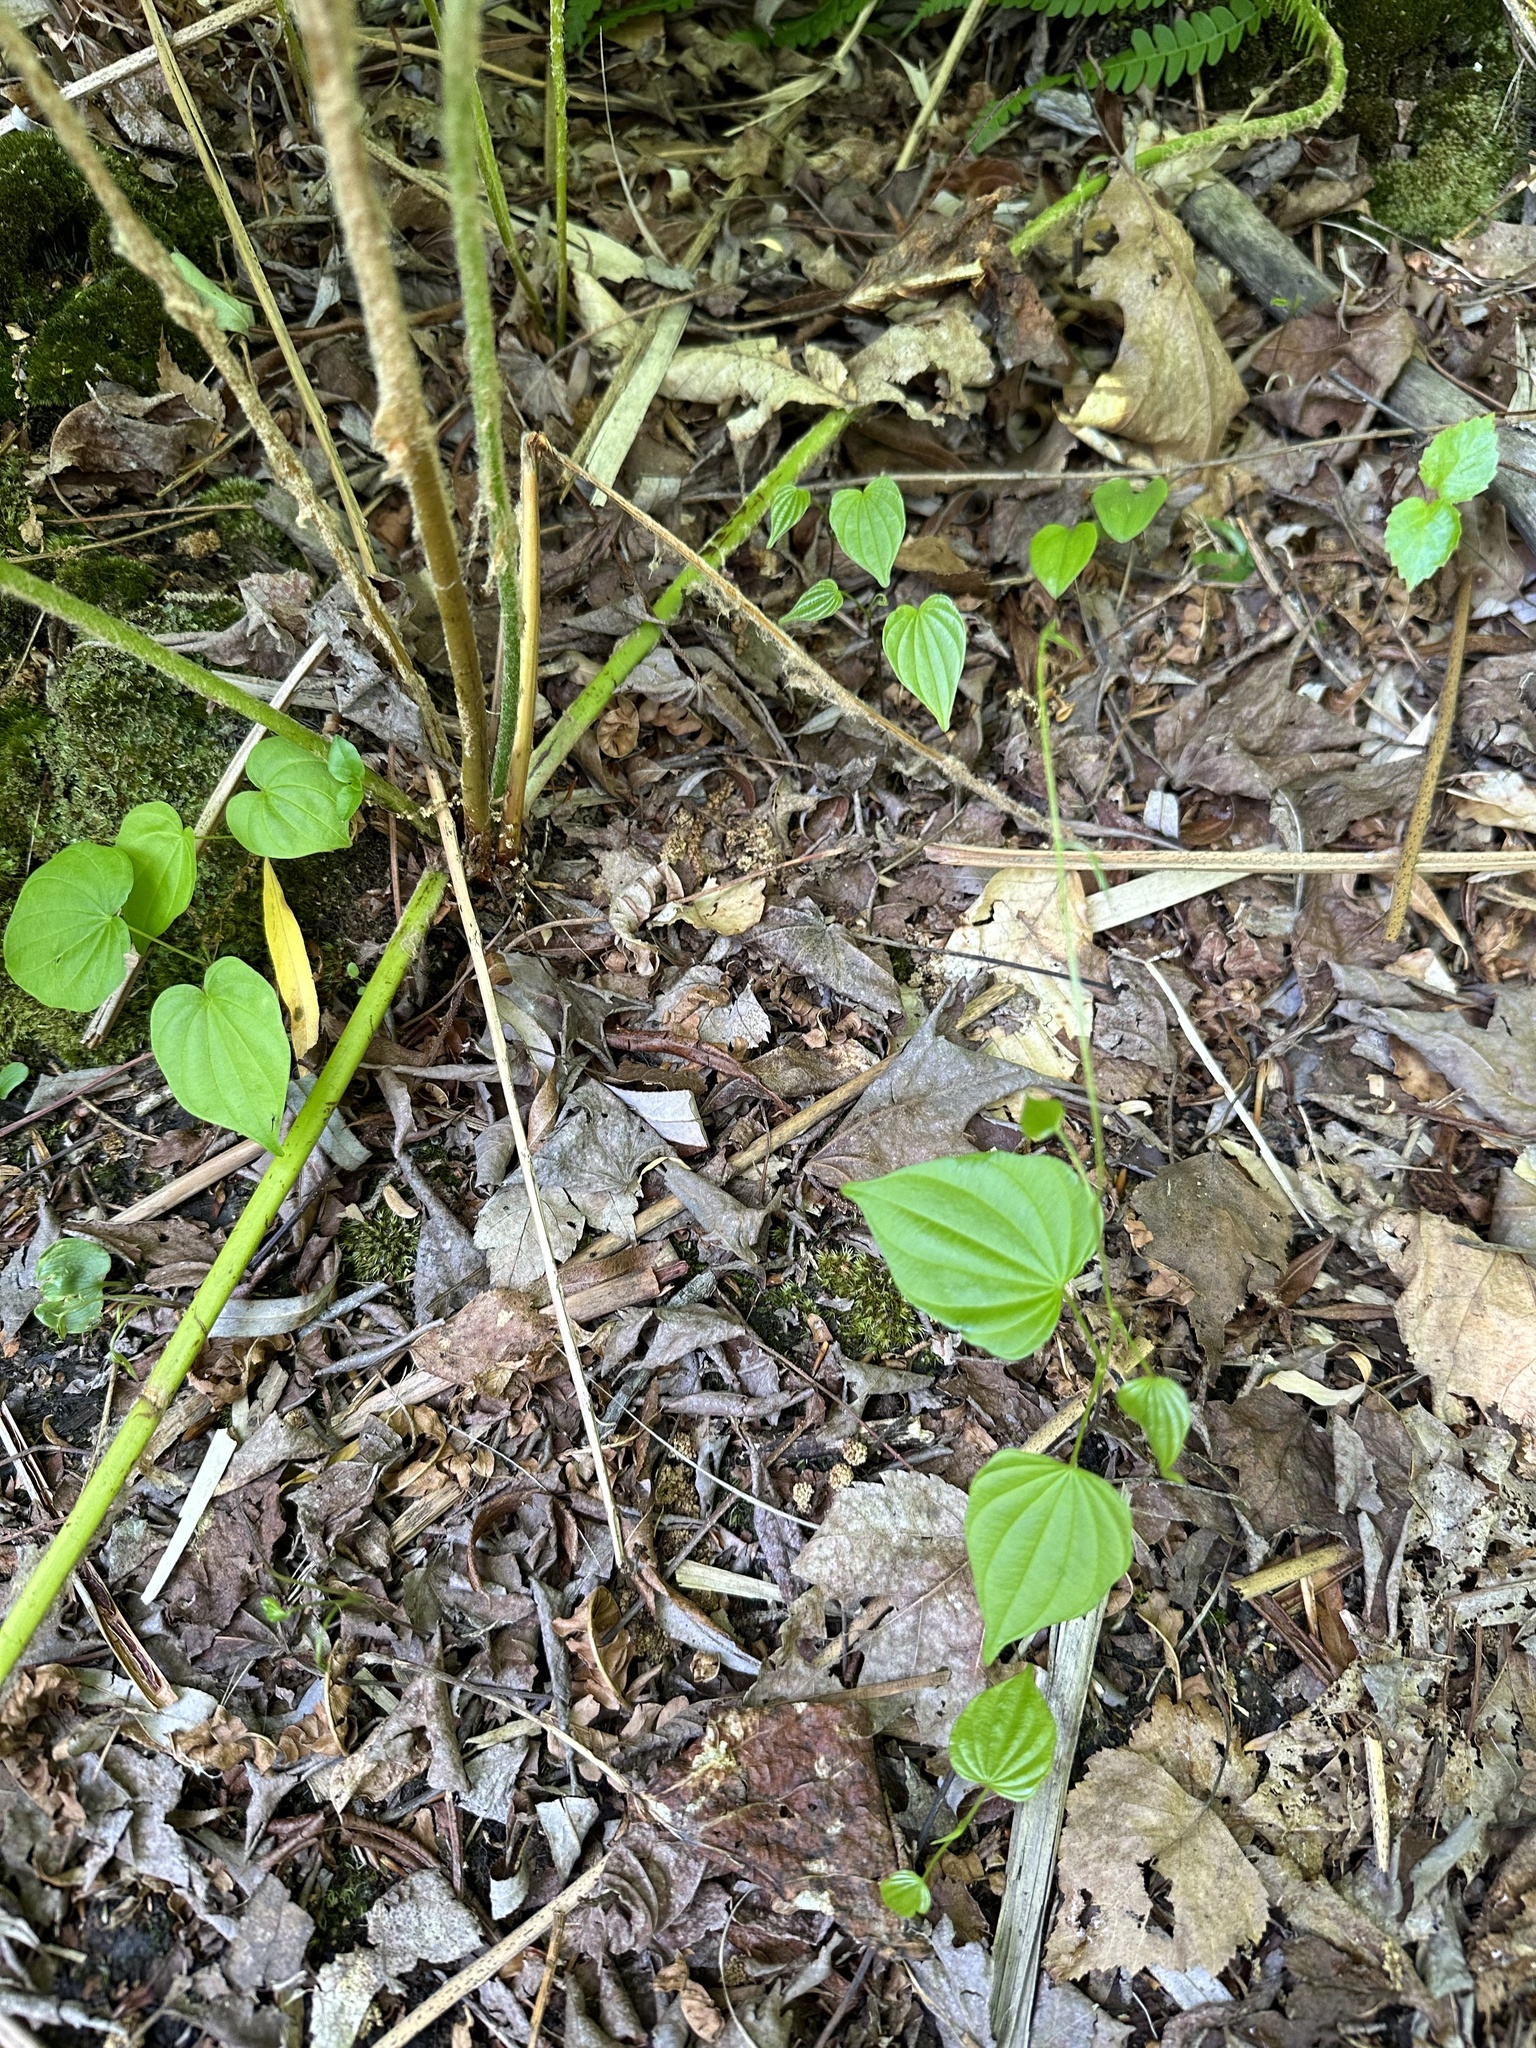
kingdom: Plantae
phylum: Tracheophyta
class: Liliopsida
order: Dioscoreales
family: Dioscoreaceae
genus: Dioscorea
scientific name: Dioscorea villosa
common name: Wild yam
